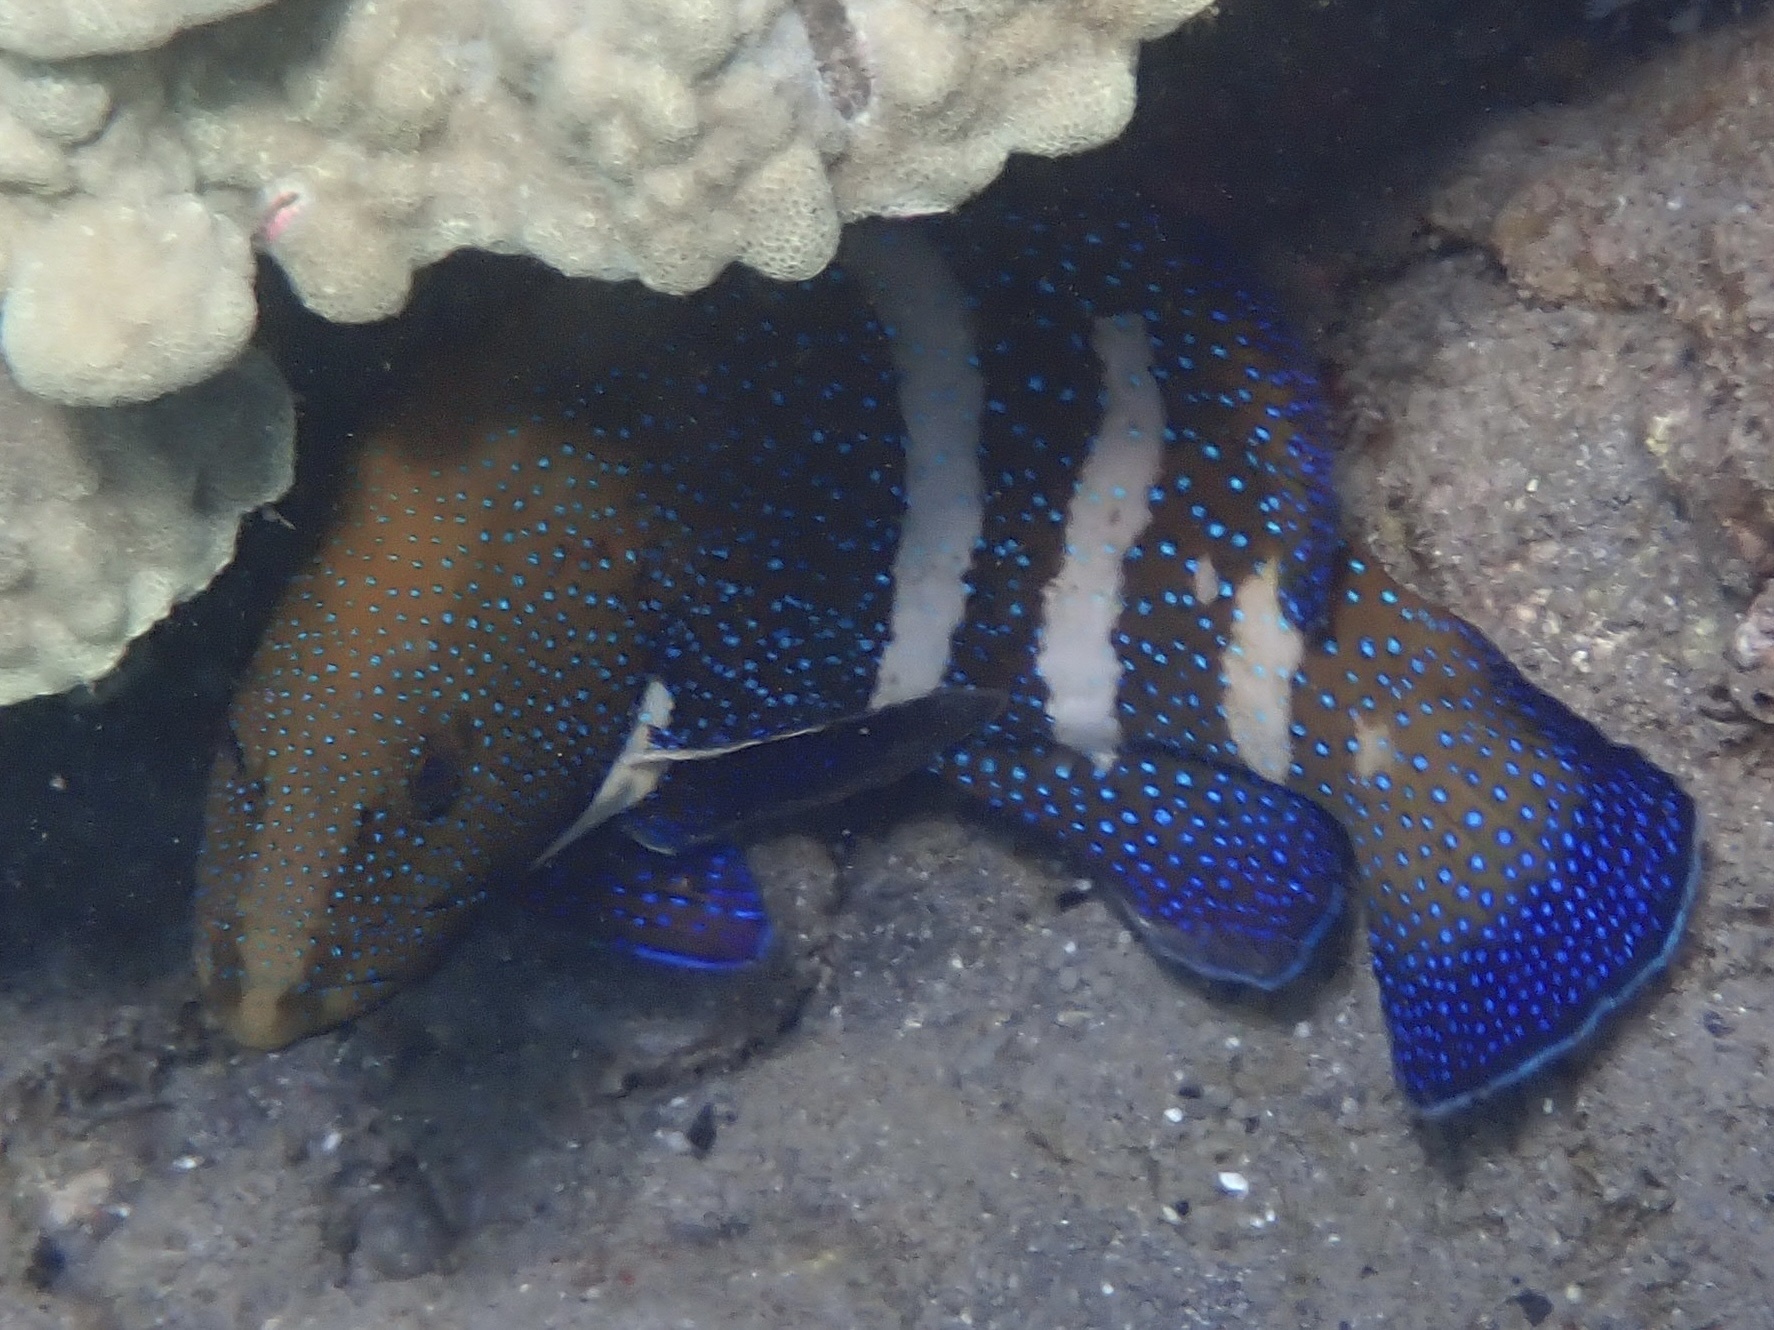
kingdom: Animalia
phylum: Chordata
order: Perciformes
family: Serranidae
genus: Cephalopholis
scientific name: Cephalopholis argus
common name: Peacock grouper
